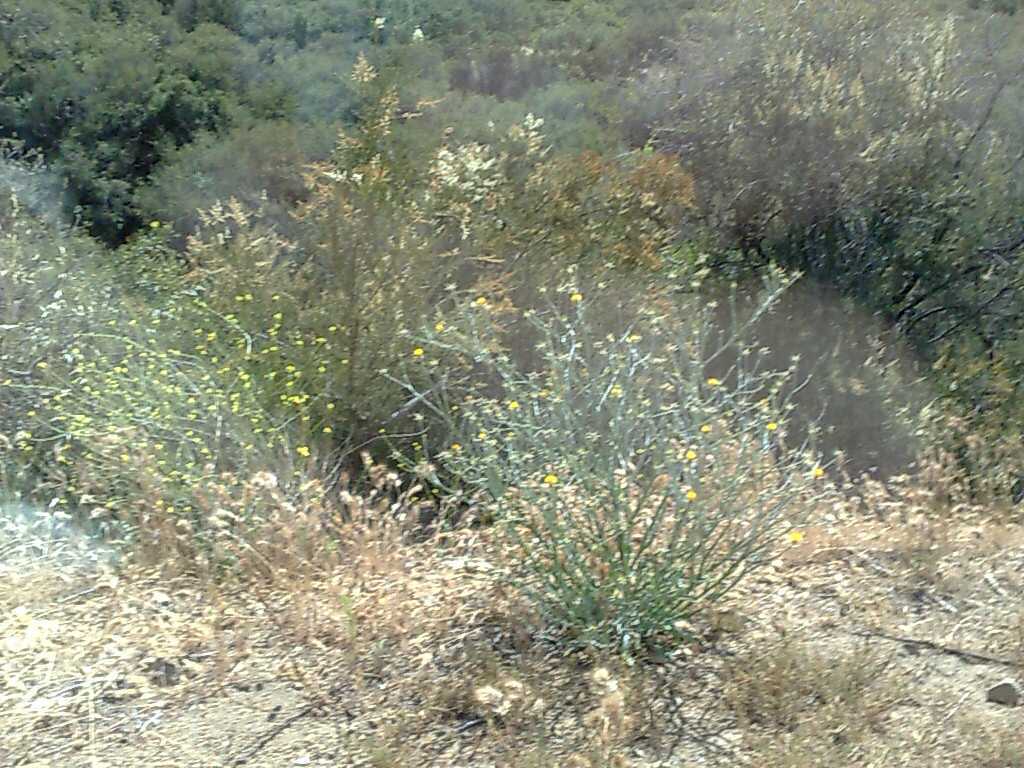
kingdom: Plantae
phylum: Tracheophyta
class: Magnoliopsida
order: Rosales
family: Rosaceae
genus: Adenostoma
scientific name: Adenostoma fasciculatum
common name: Chamise
